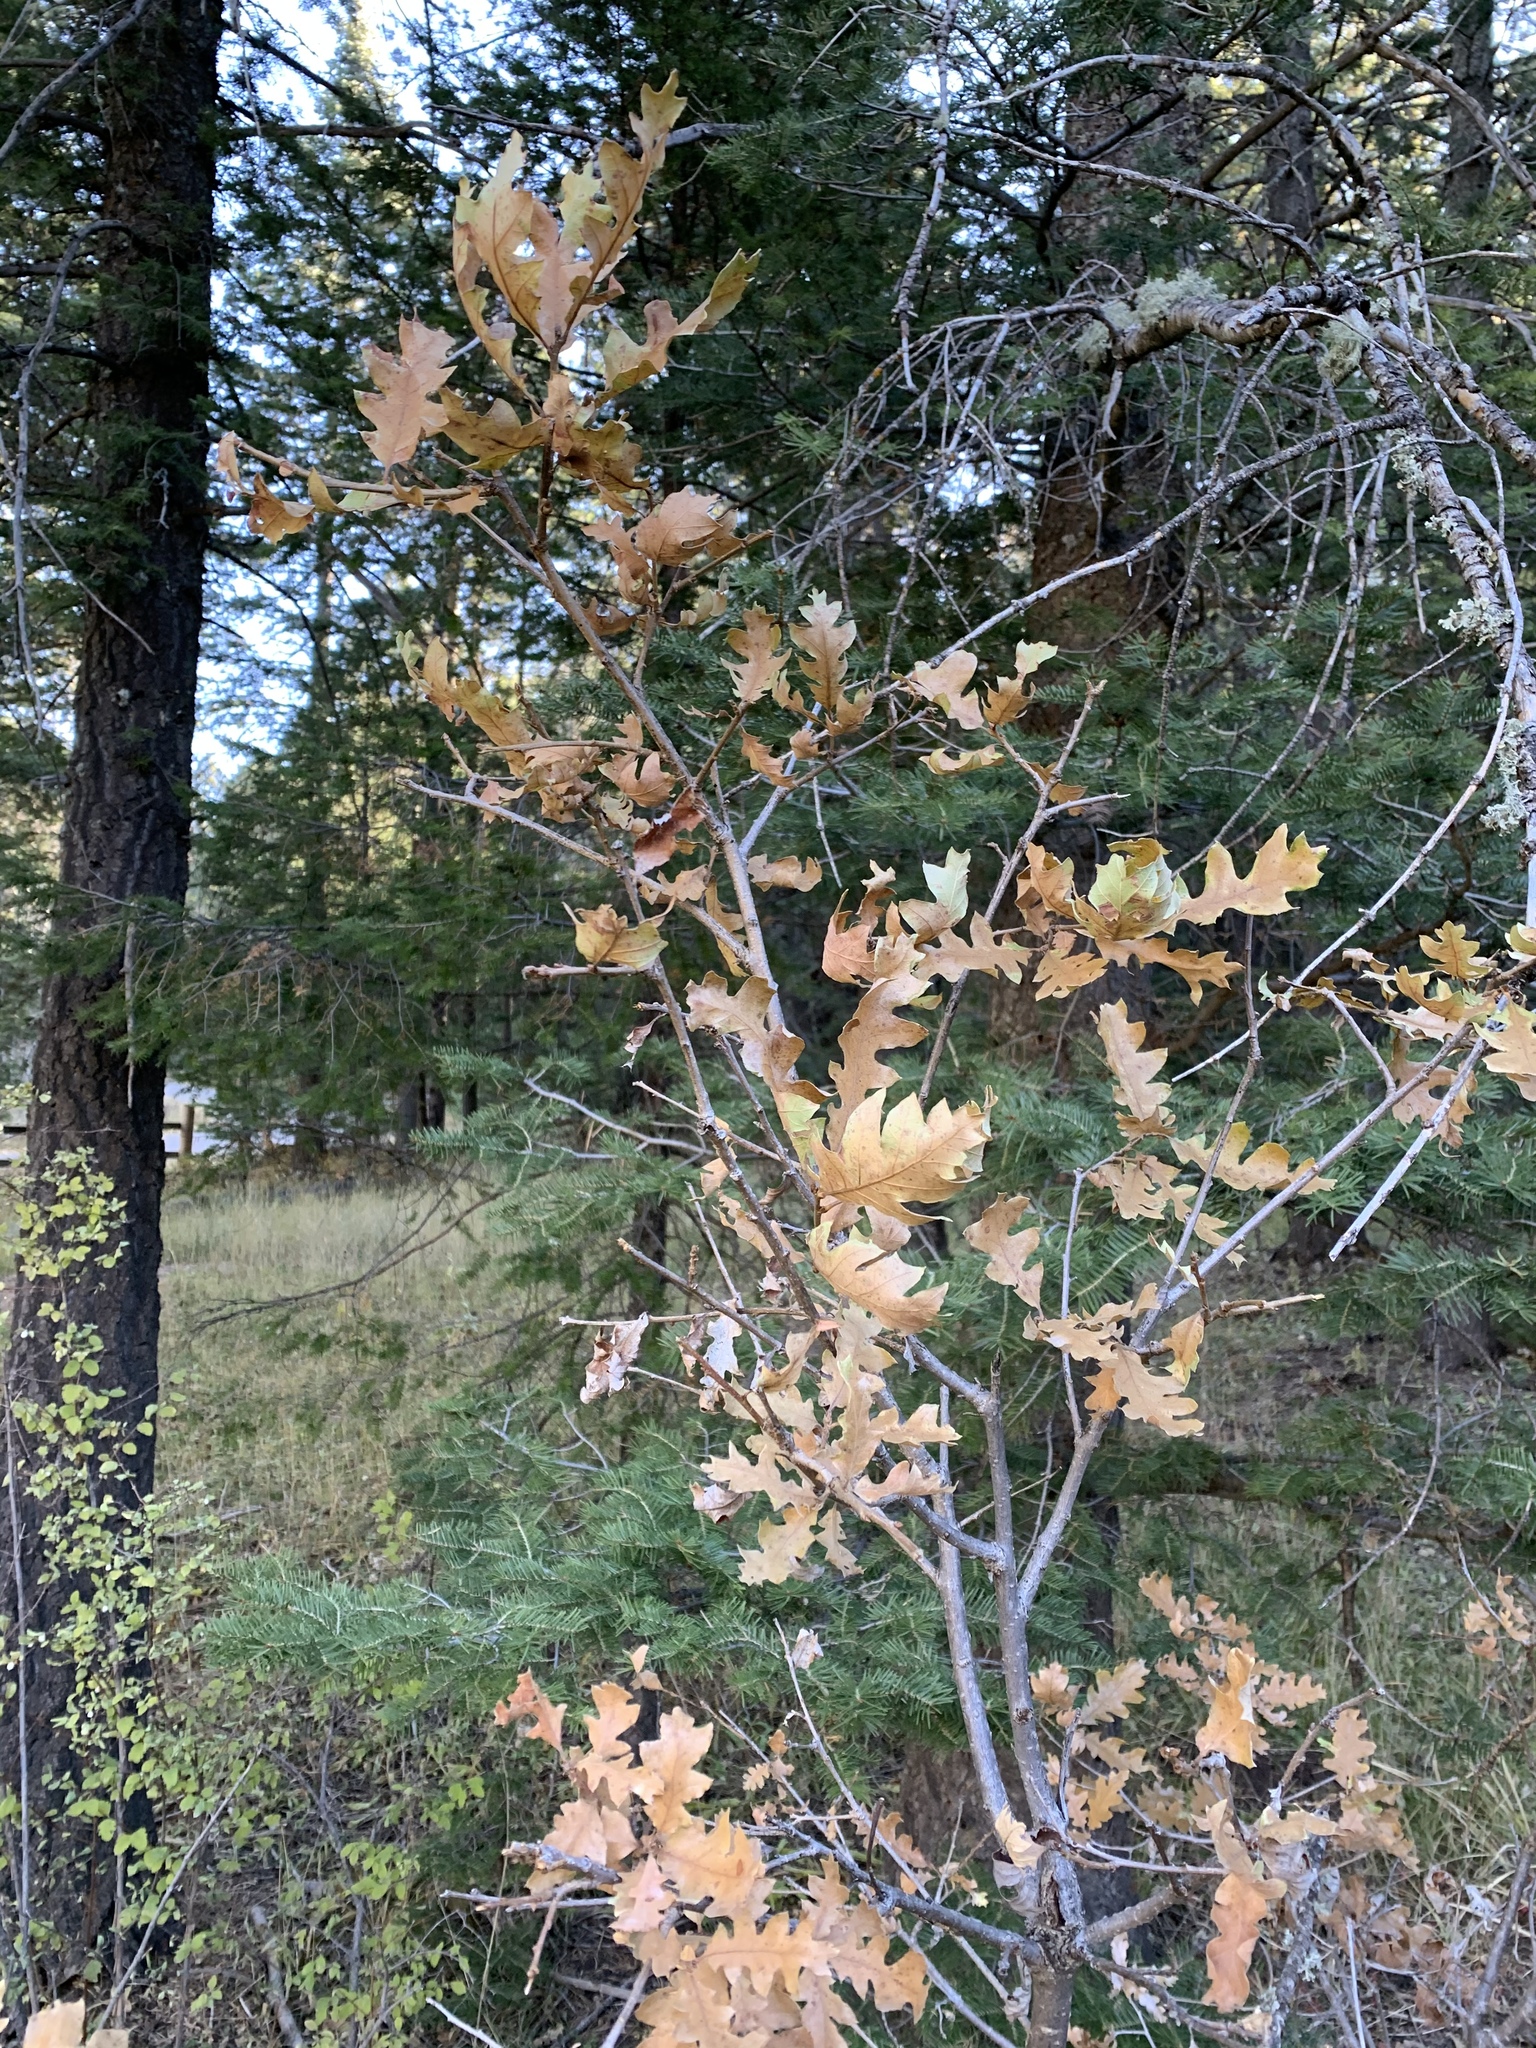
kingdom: Plantae
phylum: Tracheophyta
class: Magnoliopsida
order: Fagales
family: Fagaceae
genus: Quercus
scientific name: Quercus gambelii
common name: Gambel oak
